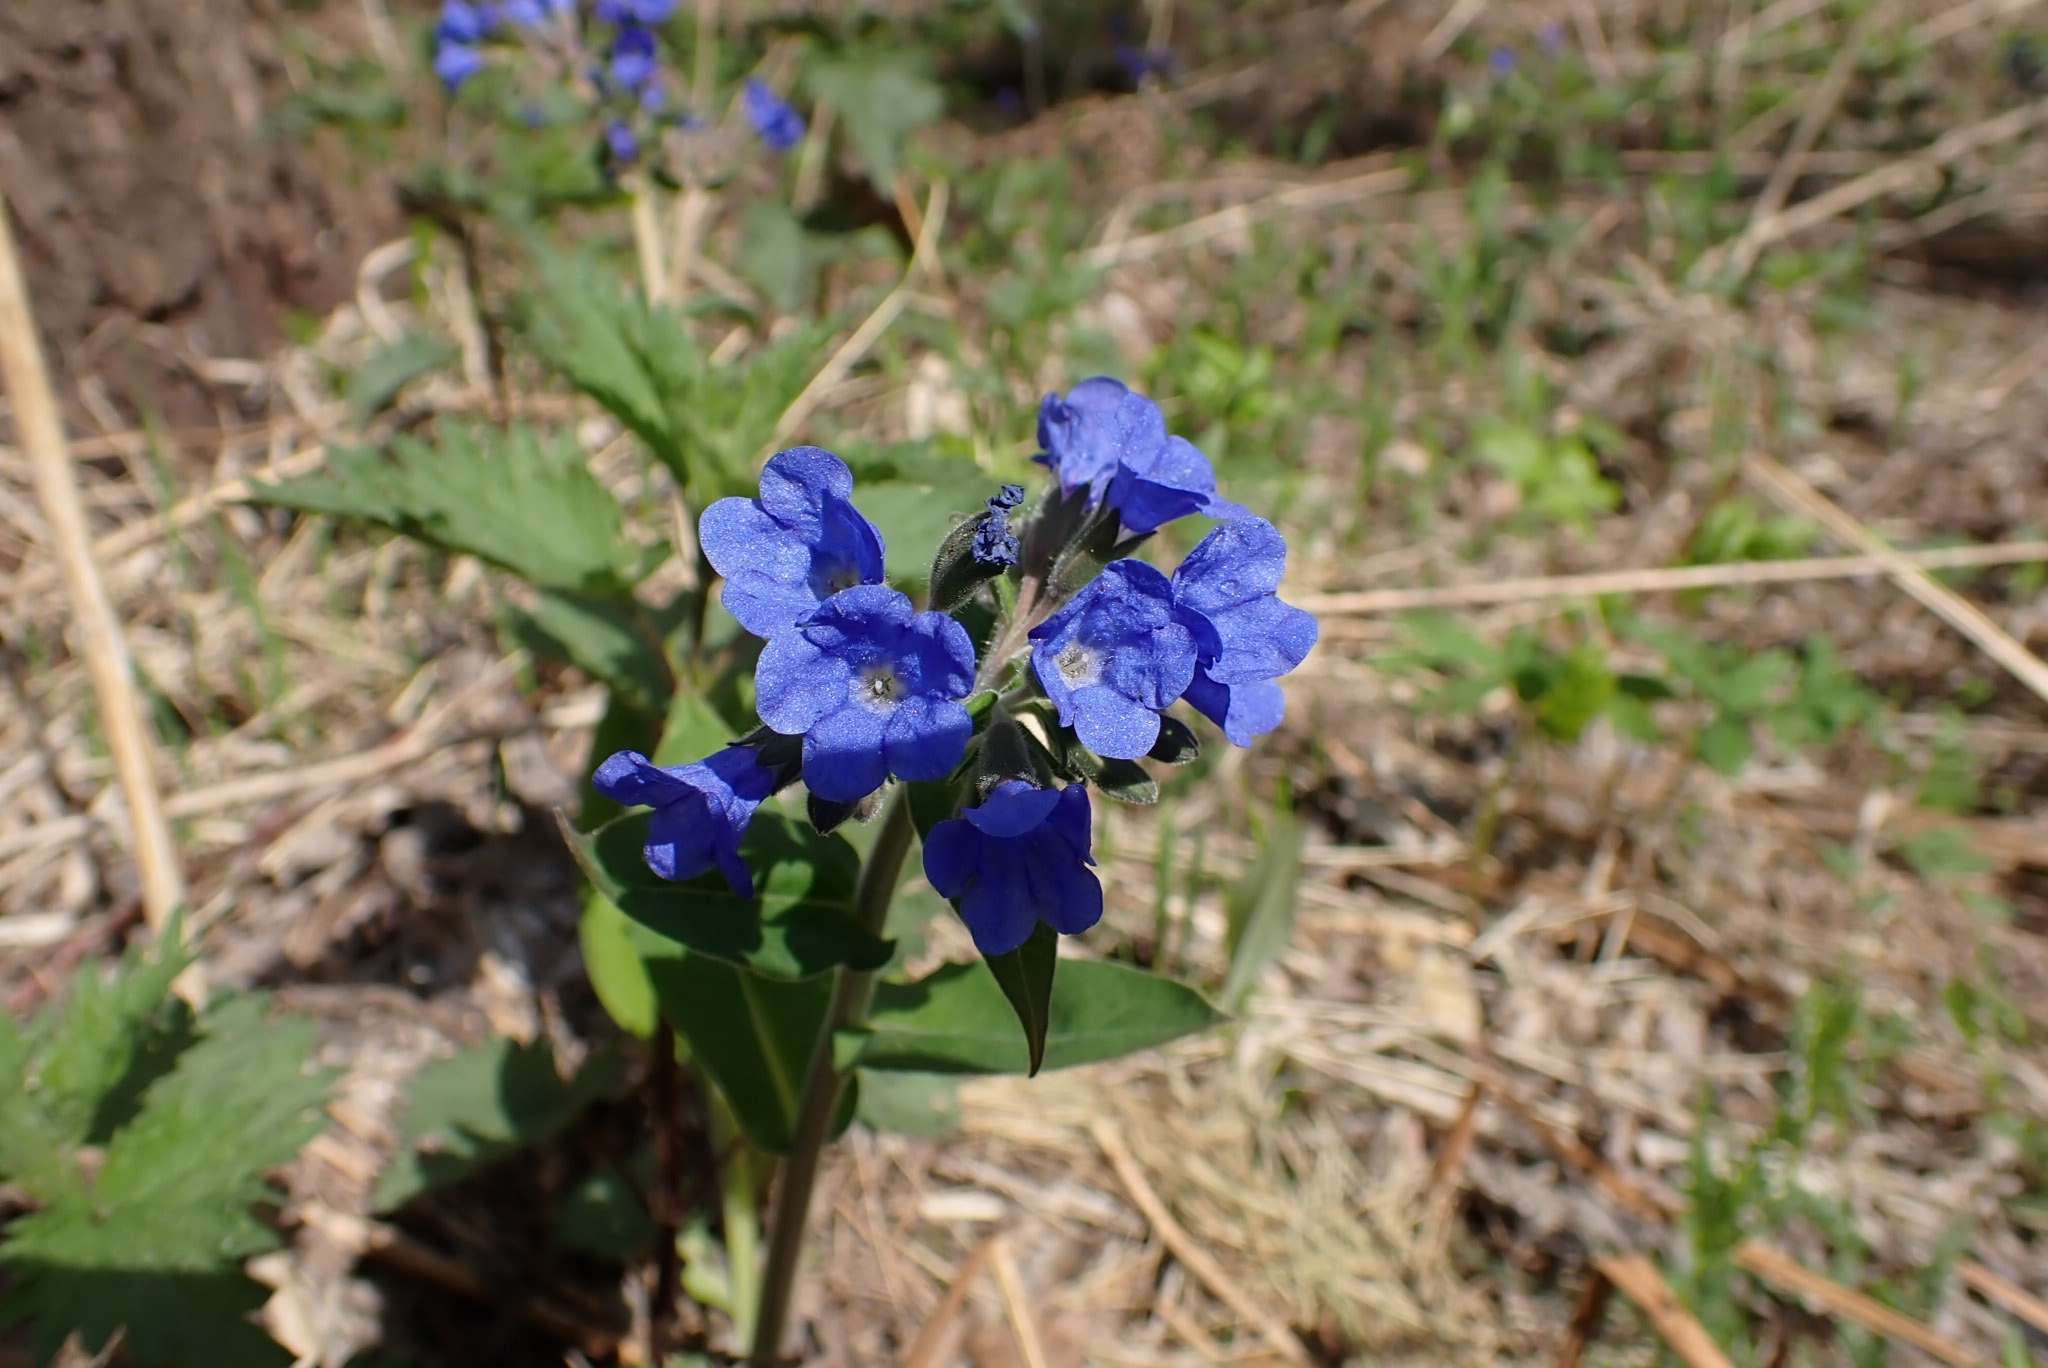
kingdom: Plantae
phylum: Tracheophyta
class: Magnoliopsida
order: Boraginales
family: Boraginaceae
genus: Pulmonaria
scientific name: Pulmonaria mollis
